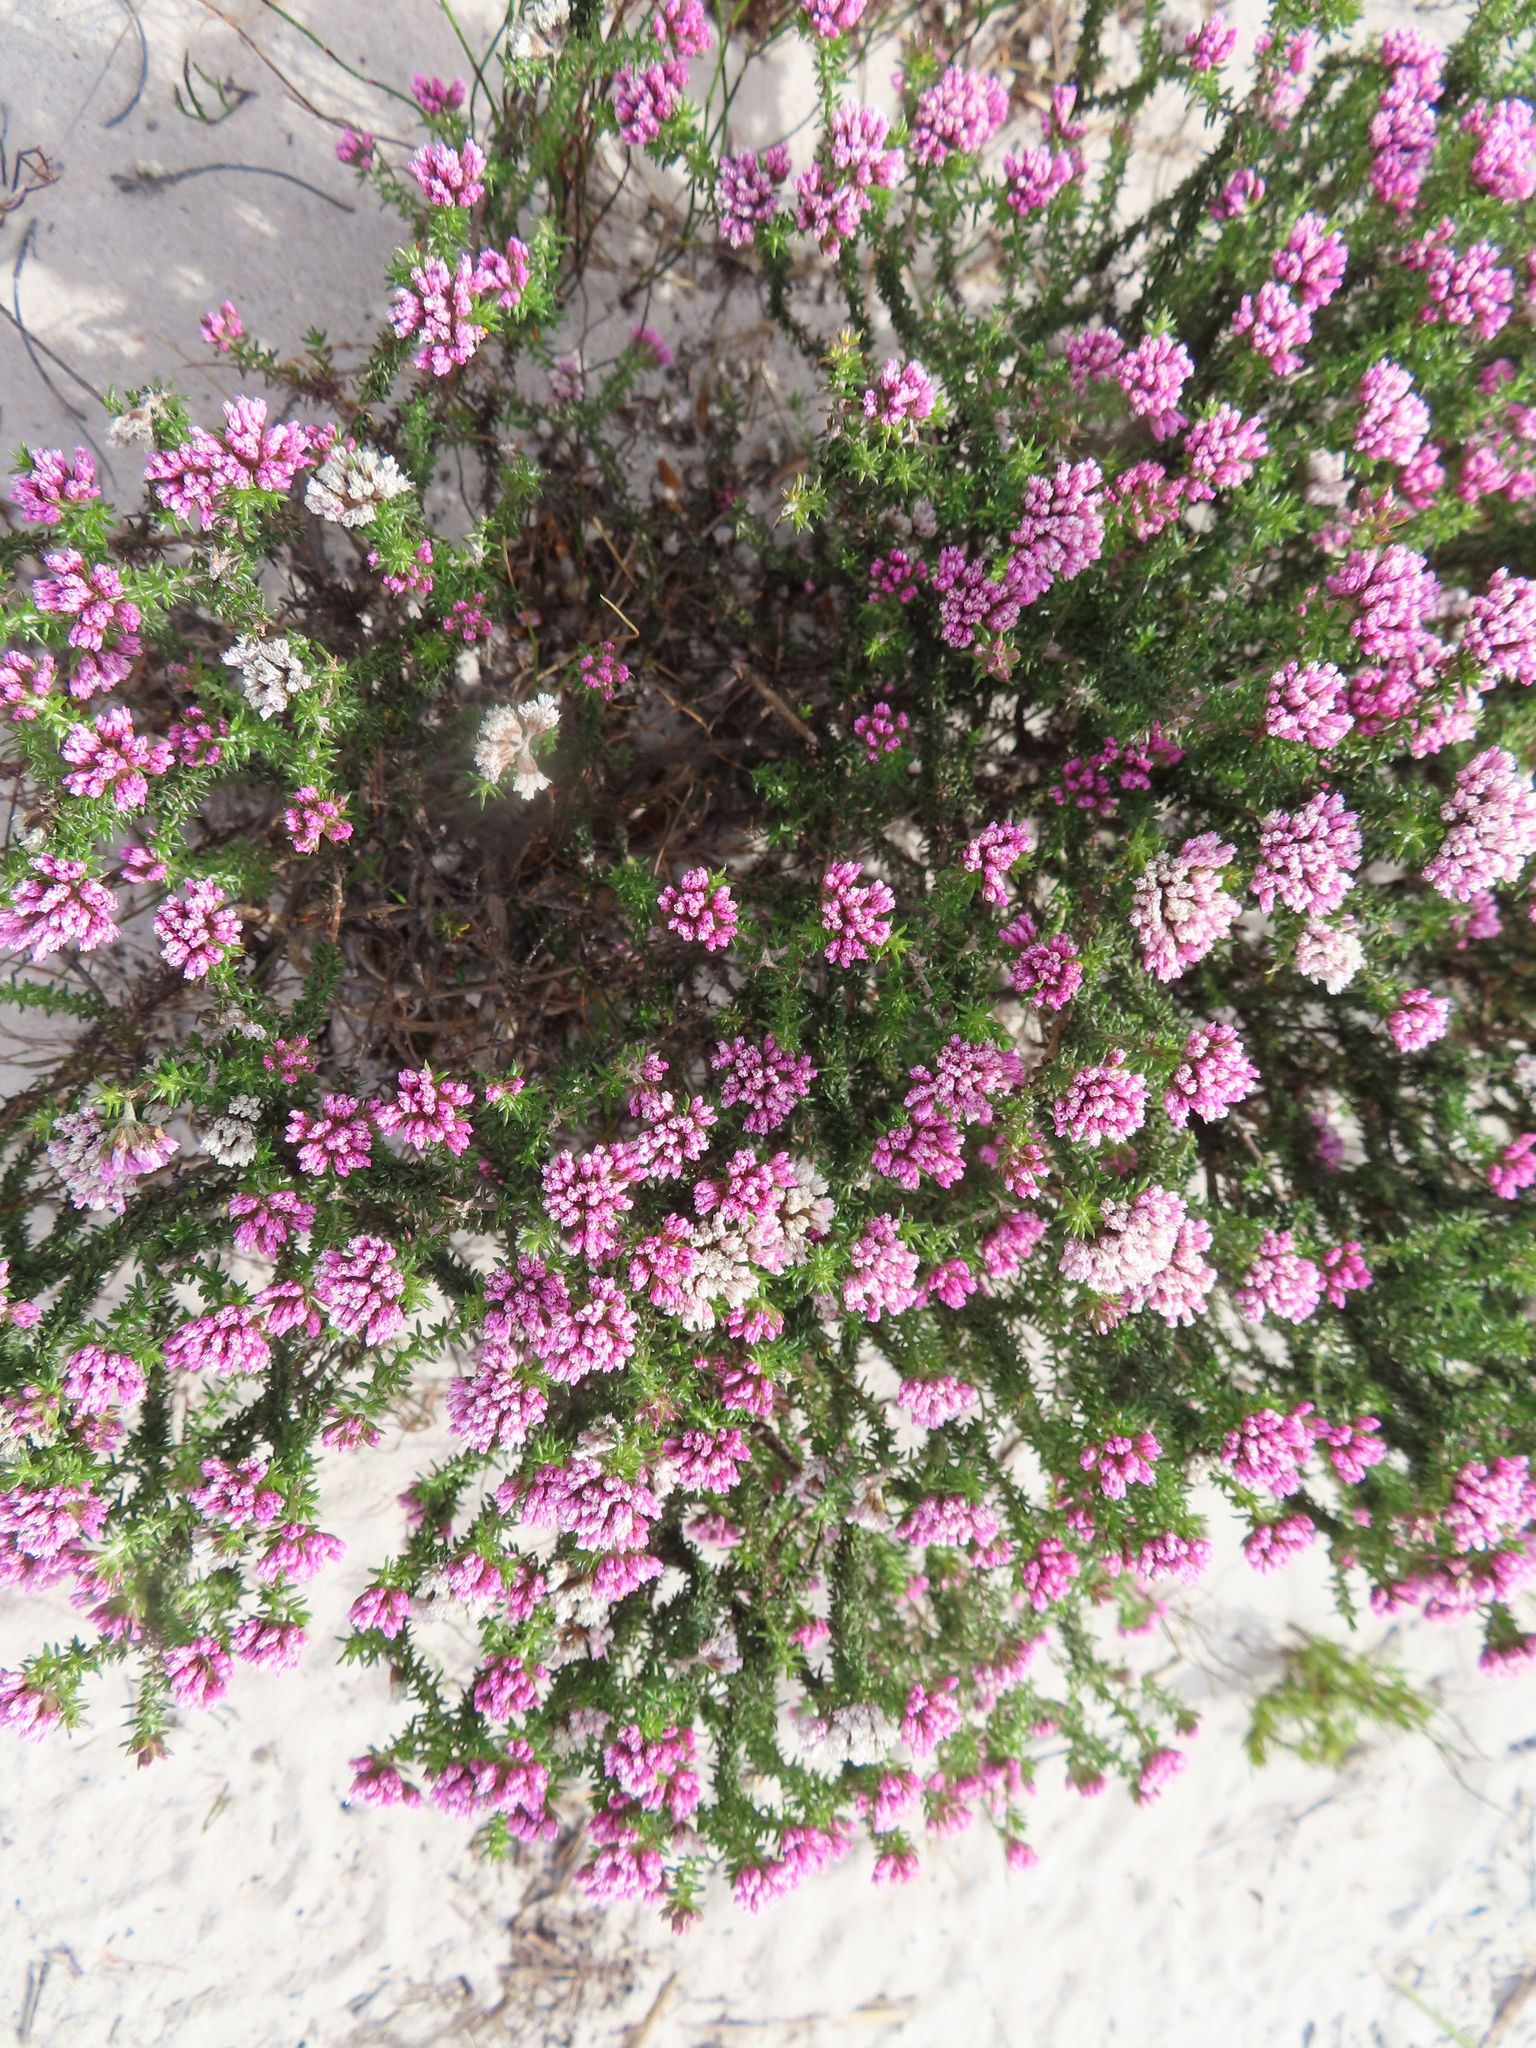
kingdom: Plantae
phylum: Tracheophyta
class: Magnoliopsida
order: Asterales
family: Asteraceae
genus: Metalasia
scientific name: Metalasia erubescens
